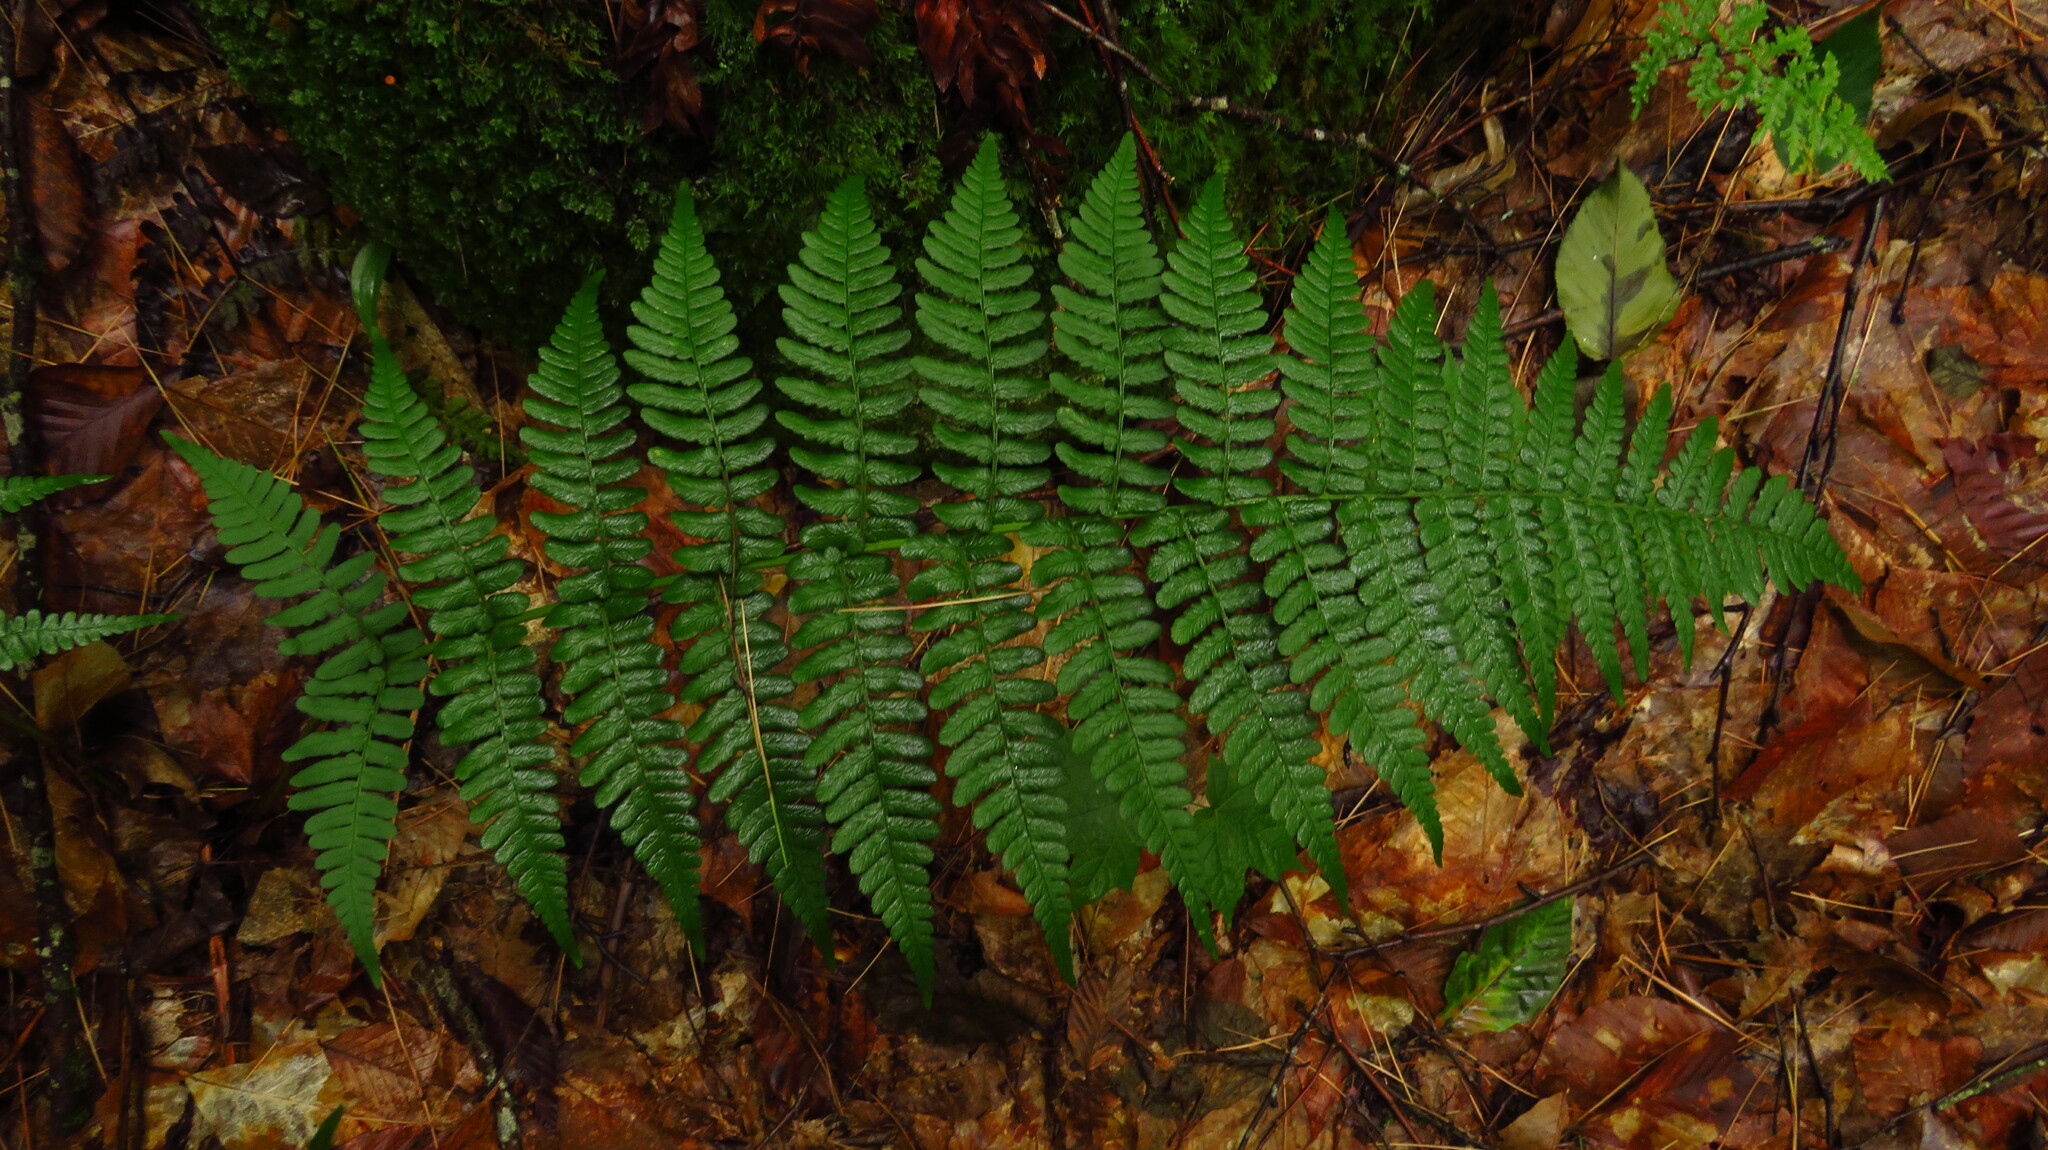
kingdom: Plantae
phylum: Tracheophyta
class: Polypodiopsida
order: Polypodiales
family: Dryopteridaceae
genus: Dryopteris
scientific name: Dryopteris marginalis
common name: Marginal wood fern
